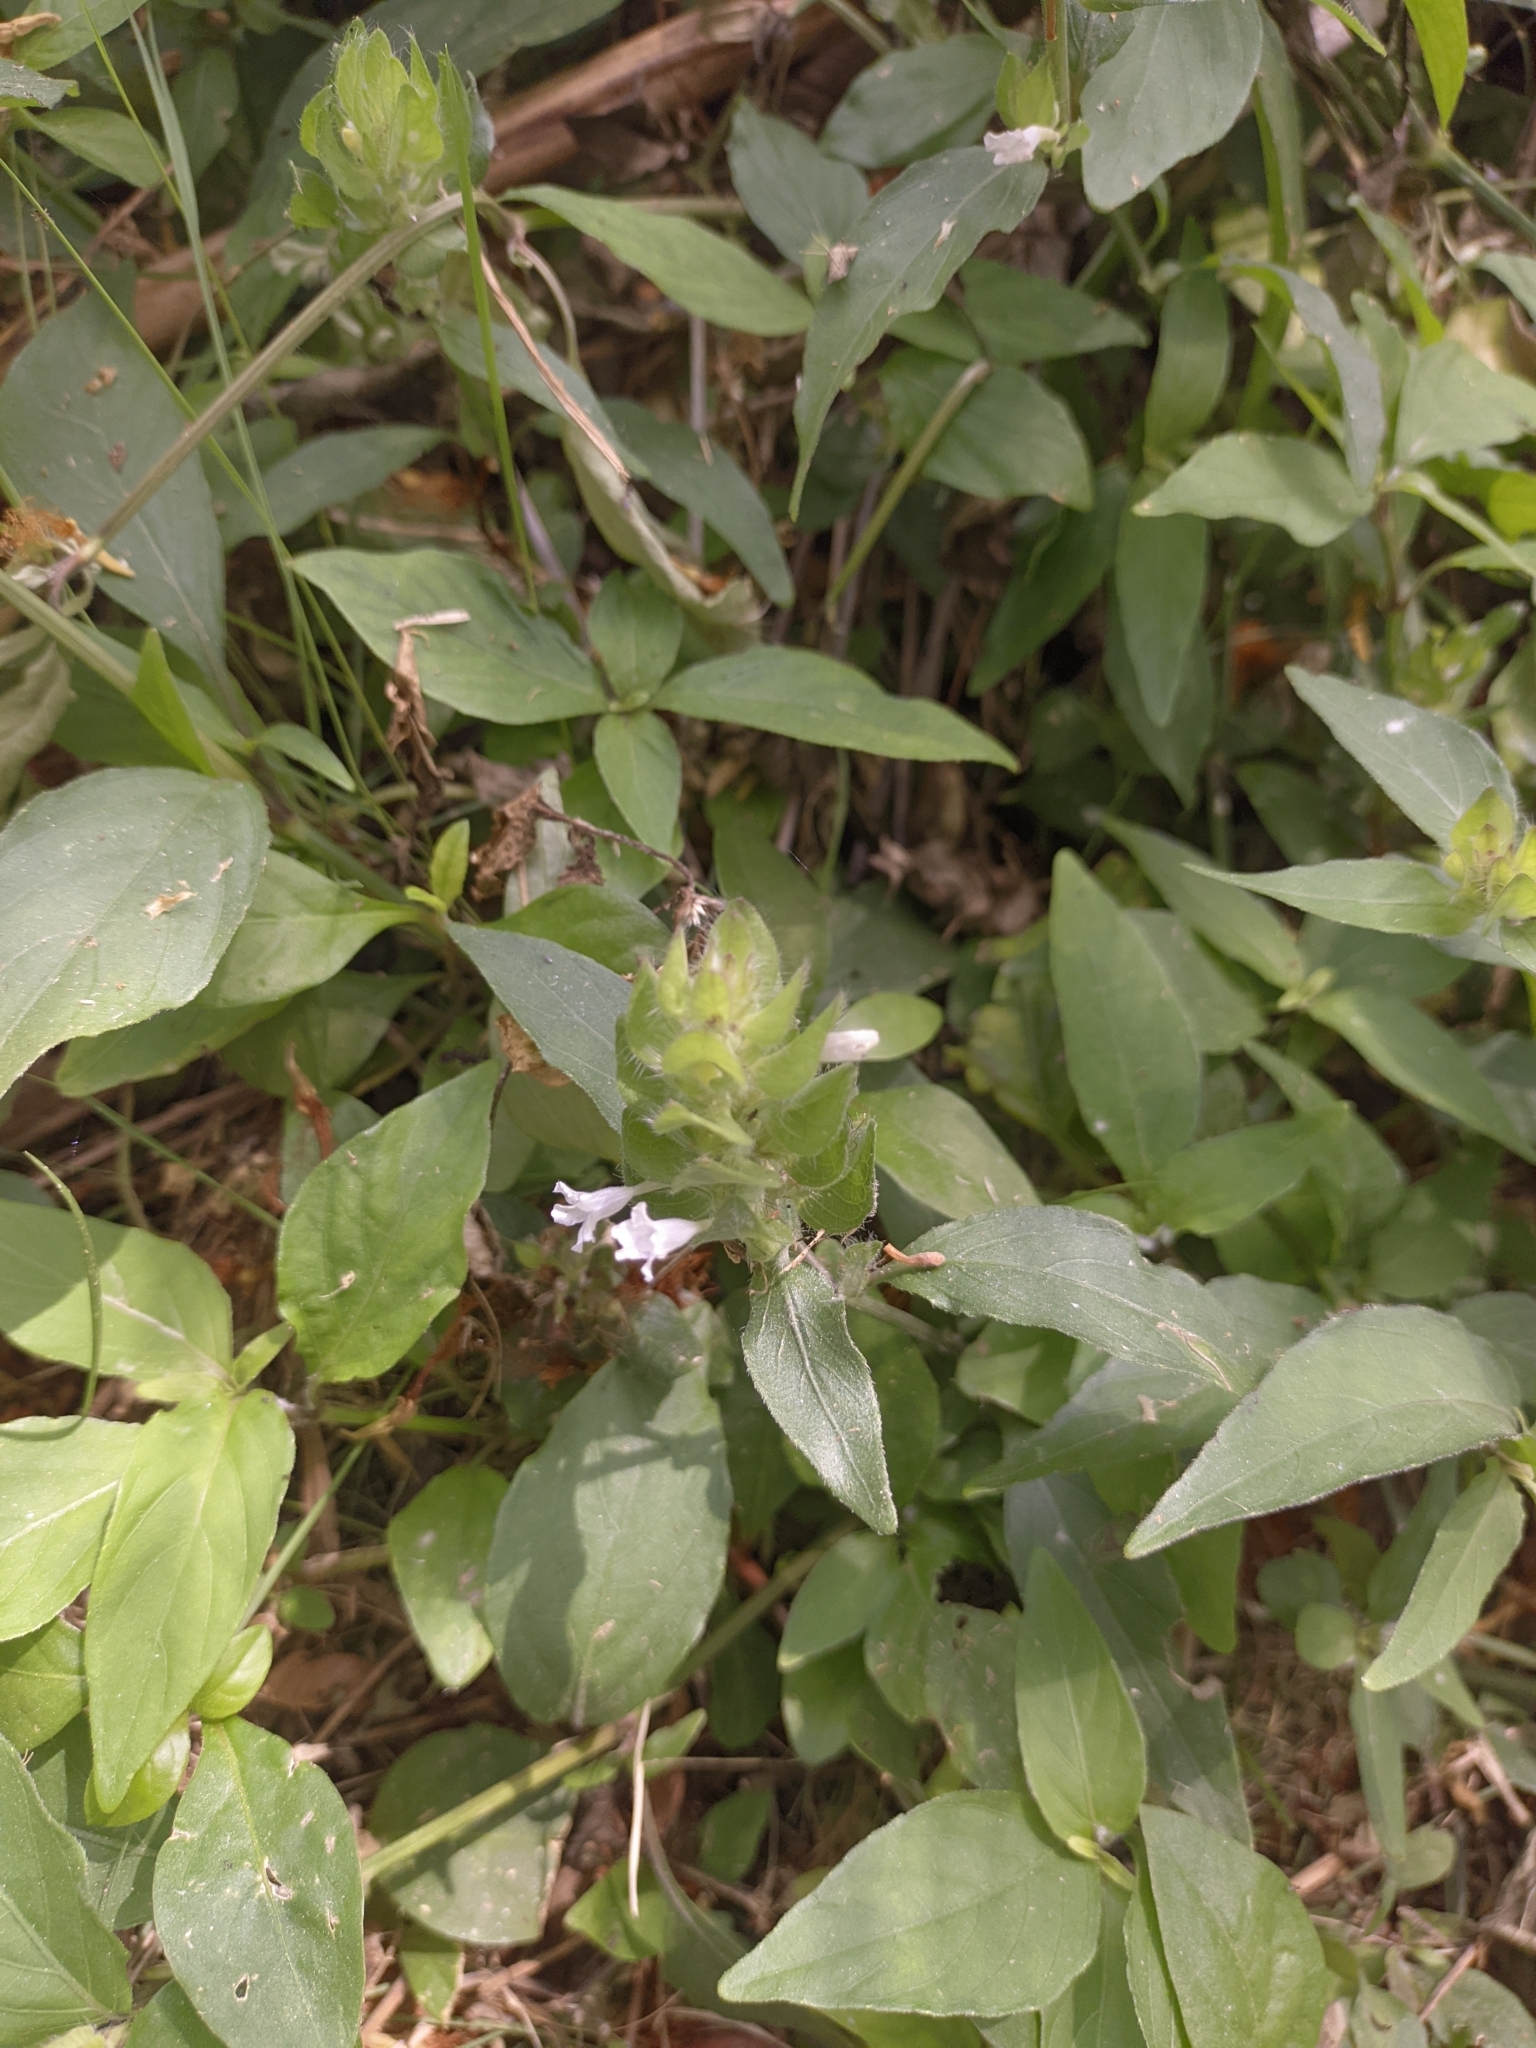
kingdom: Plantae
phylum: Tracheophyta
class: Magnoliopsida
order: Lamiales
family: Acanthaceae
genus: Ruellia
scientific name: Ruellia blechum
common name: Browne's blechum
